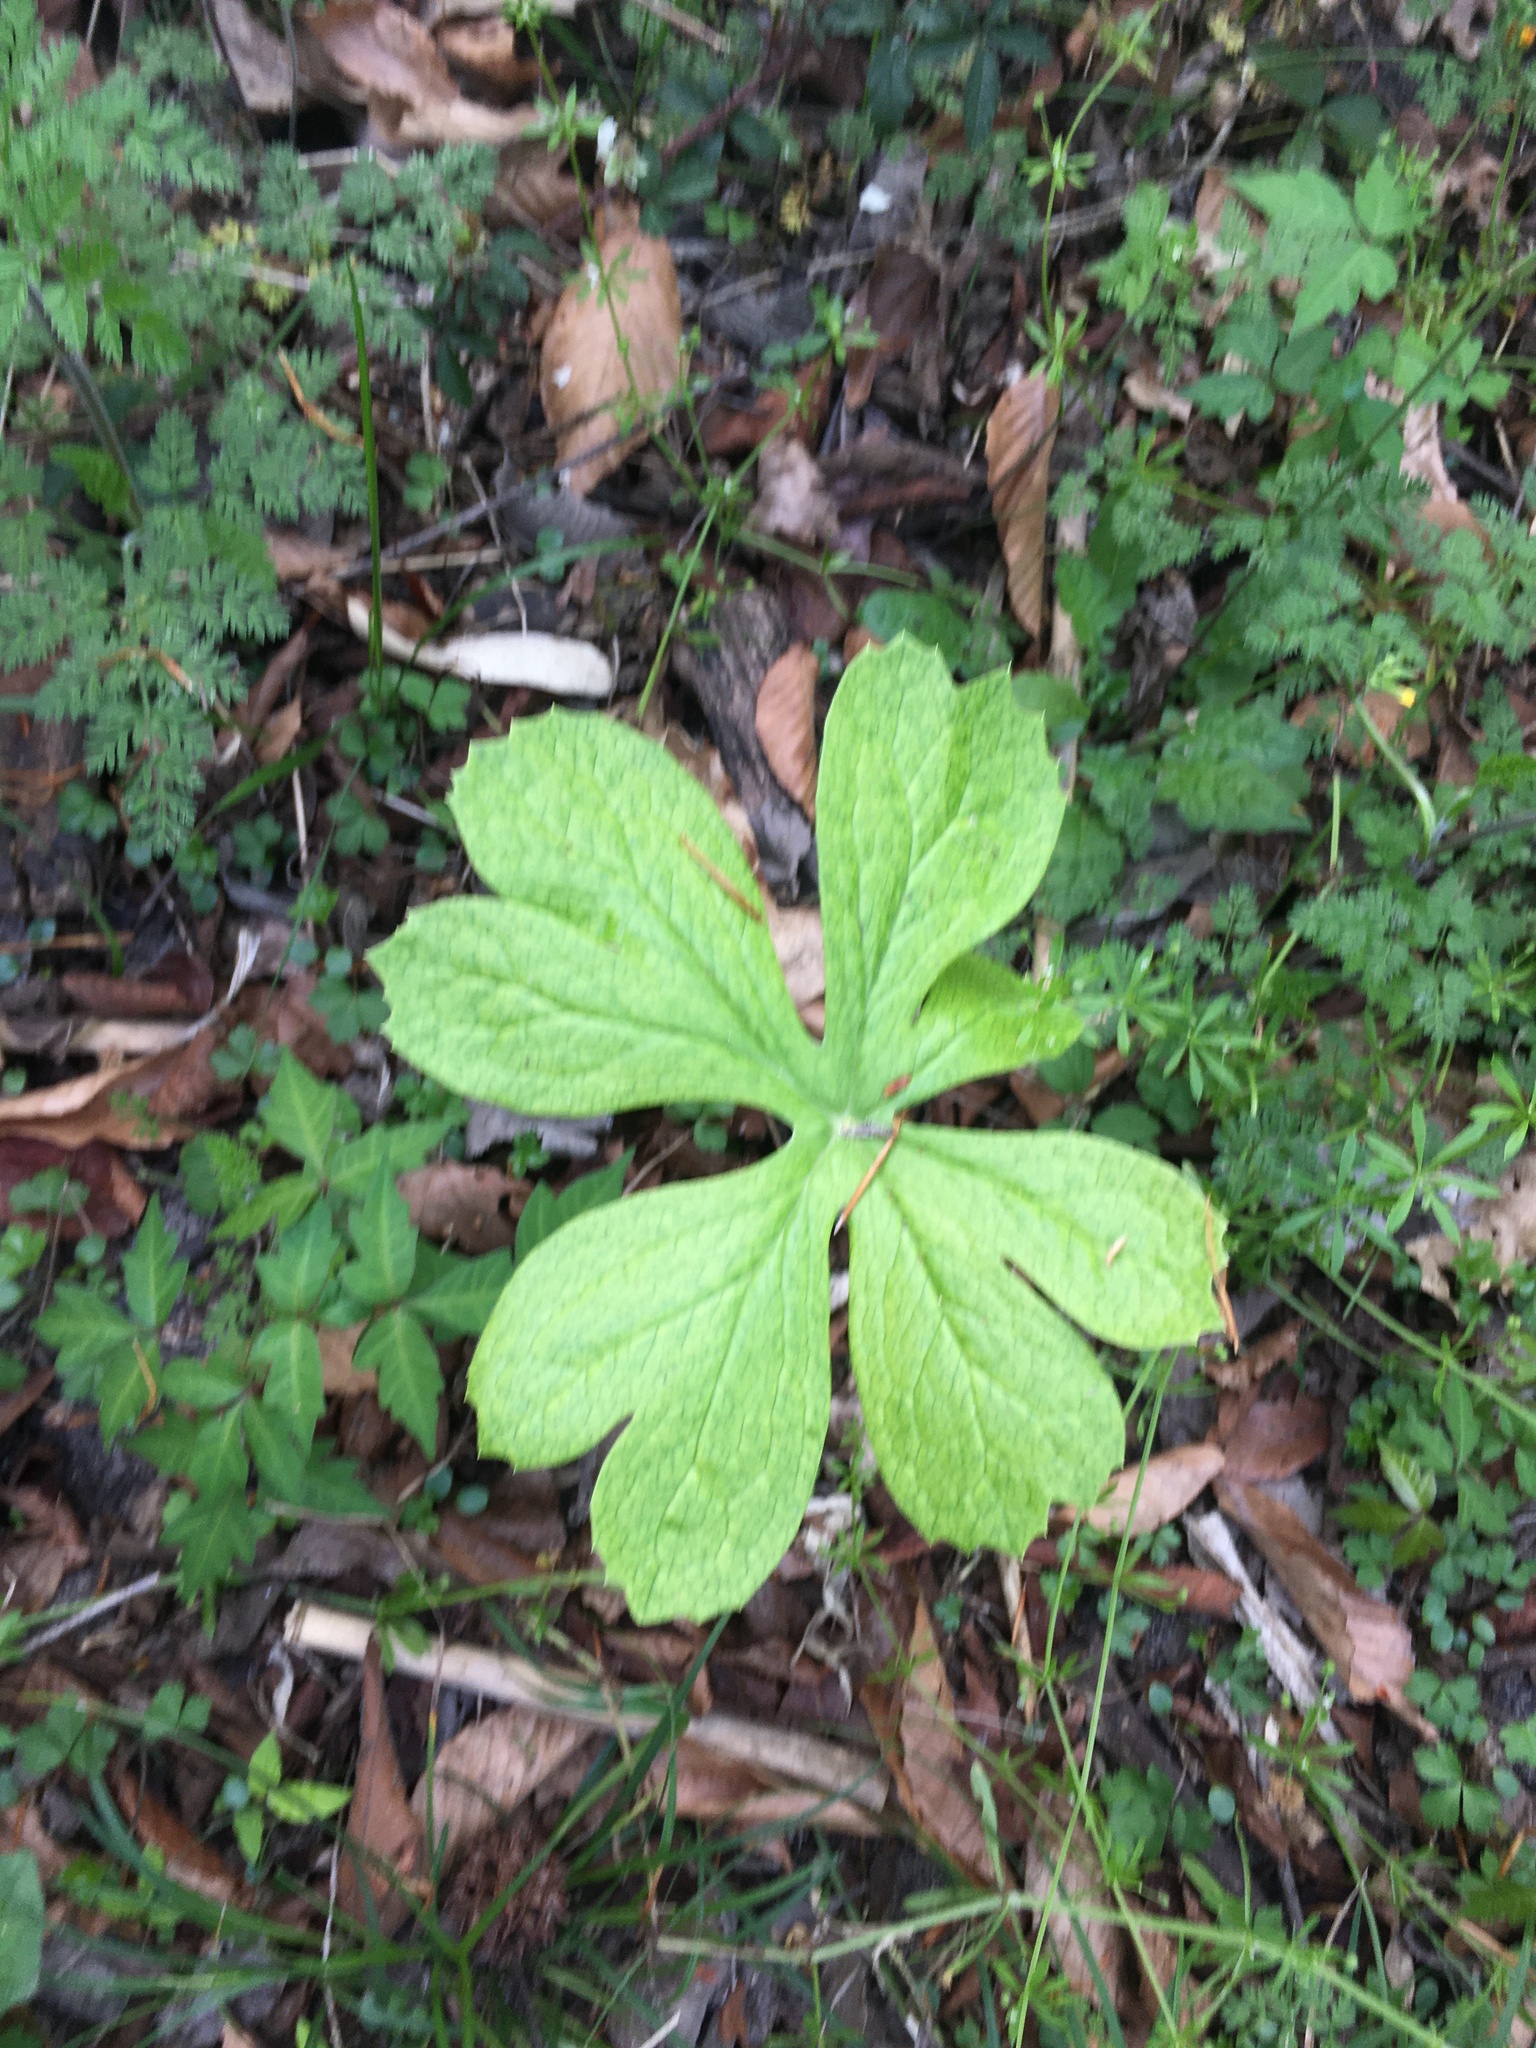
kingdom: Plantae
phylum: Tracheophyta
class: Magnoliopsida
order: Ranunculales
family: Berberidaceae
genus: Podophyllum
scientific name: Podophyllum peltatum
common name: Wild mandrake
